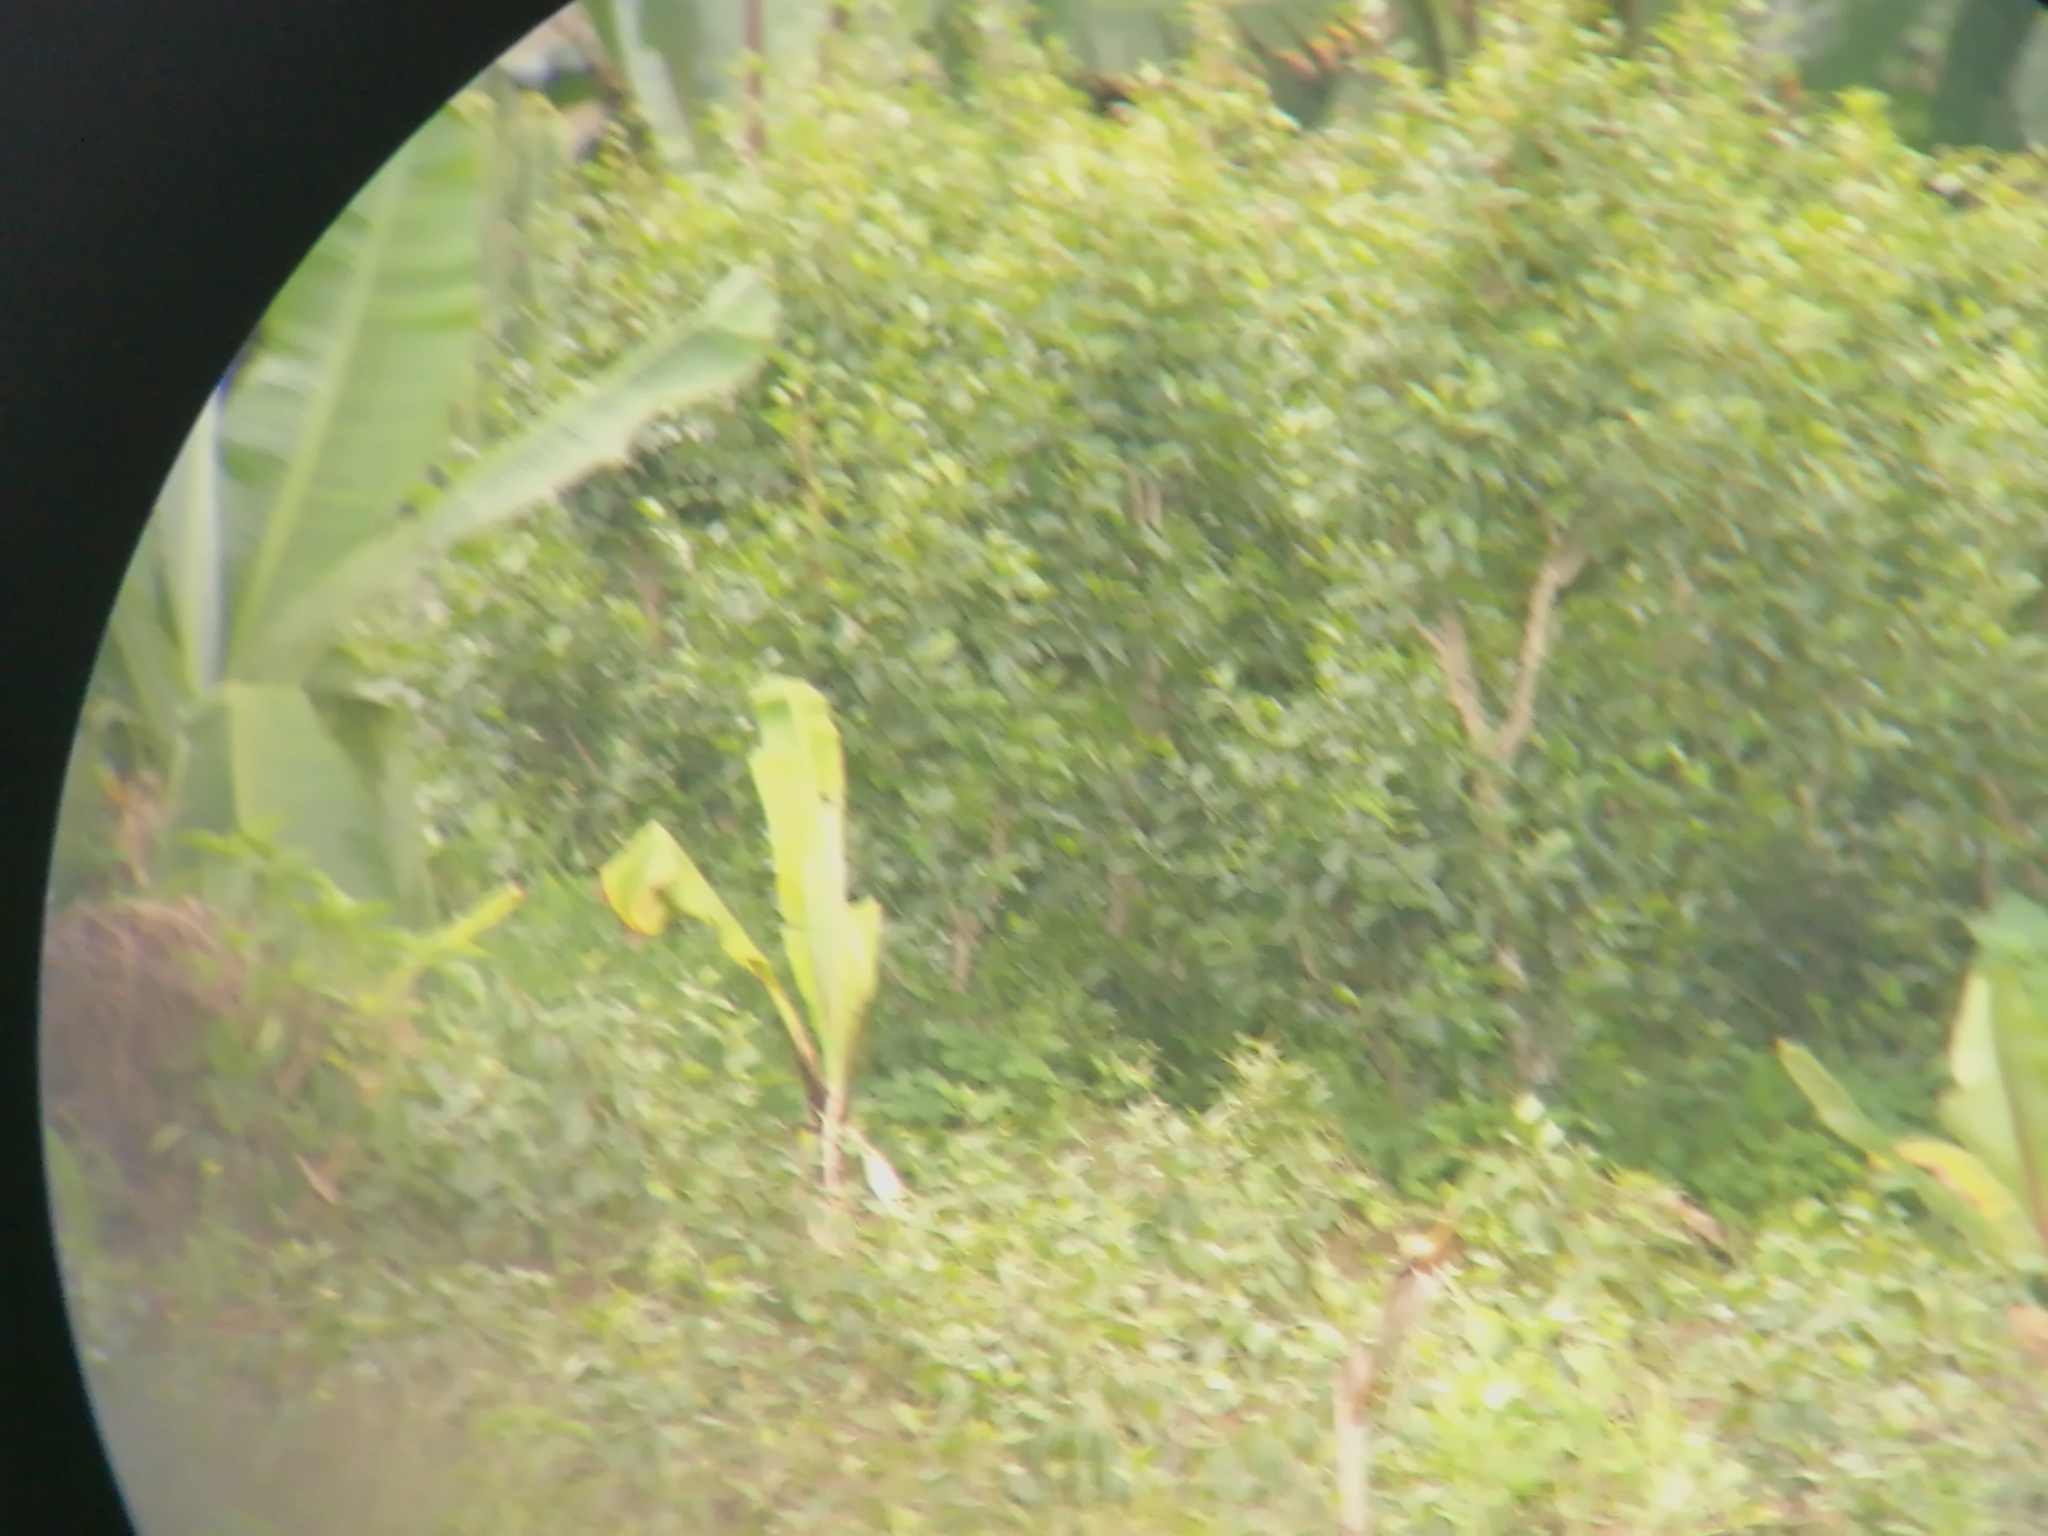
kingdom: Plantae
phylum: Tracheophyta
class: Magnoliopsida
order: Celastrales
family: Celastraceae
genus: Catha
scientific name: Catha edulis
